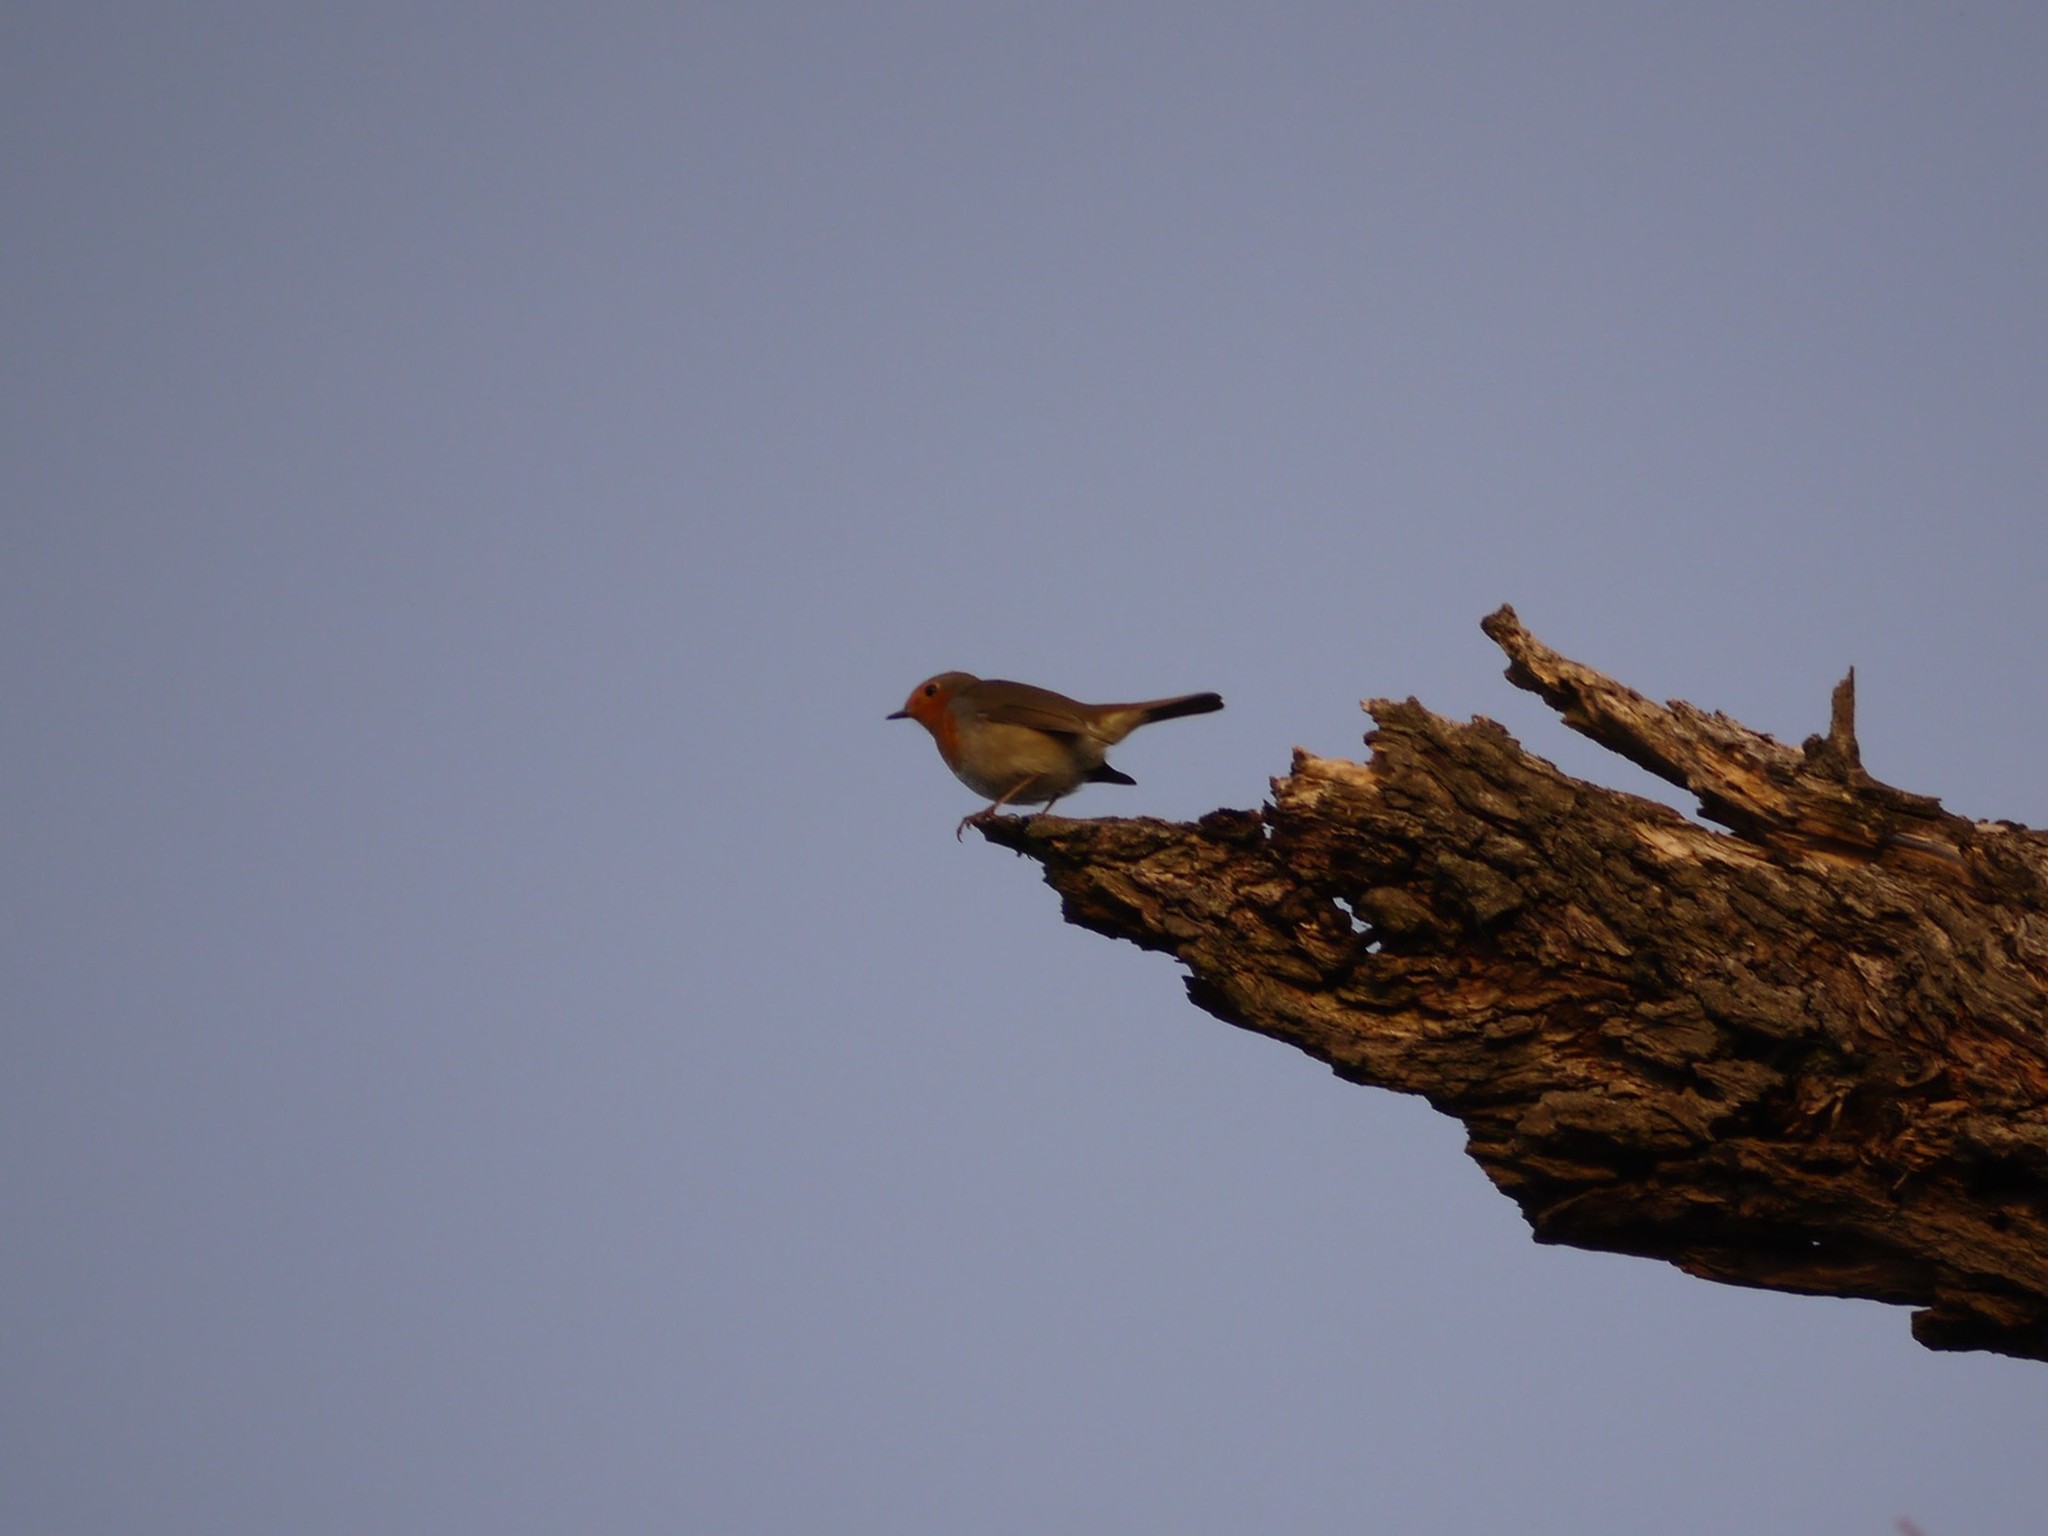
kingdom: Animalia
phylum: Chordata
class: Aves
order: Passeriformes
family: Muscicapidae
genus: Erithacus
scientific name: Erithacus rubecula
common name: European robin
